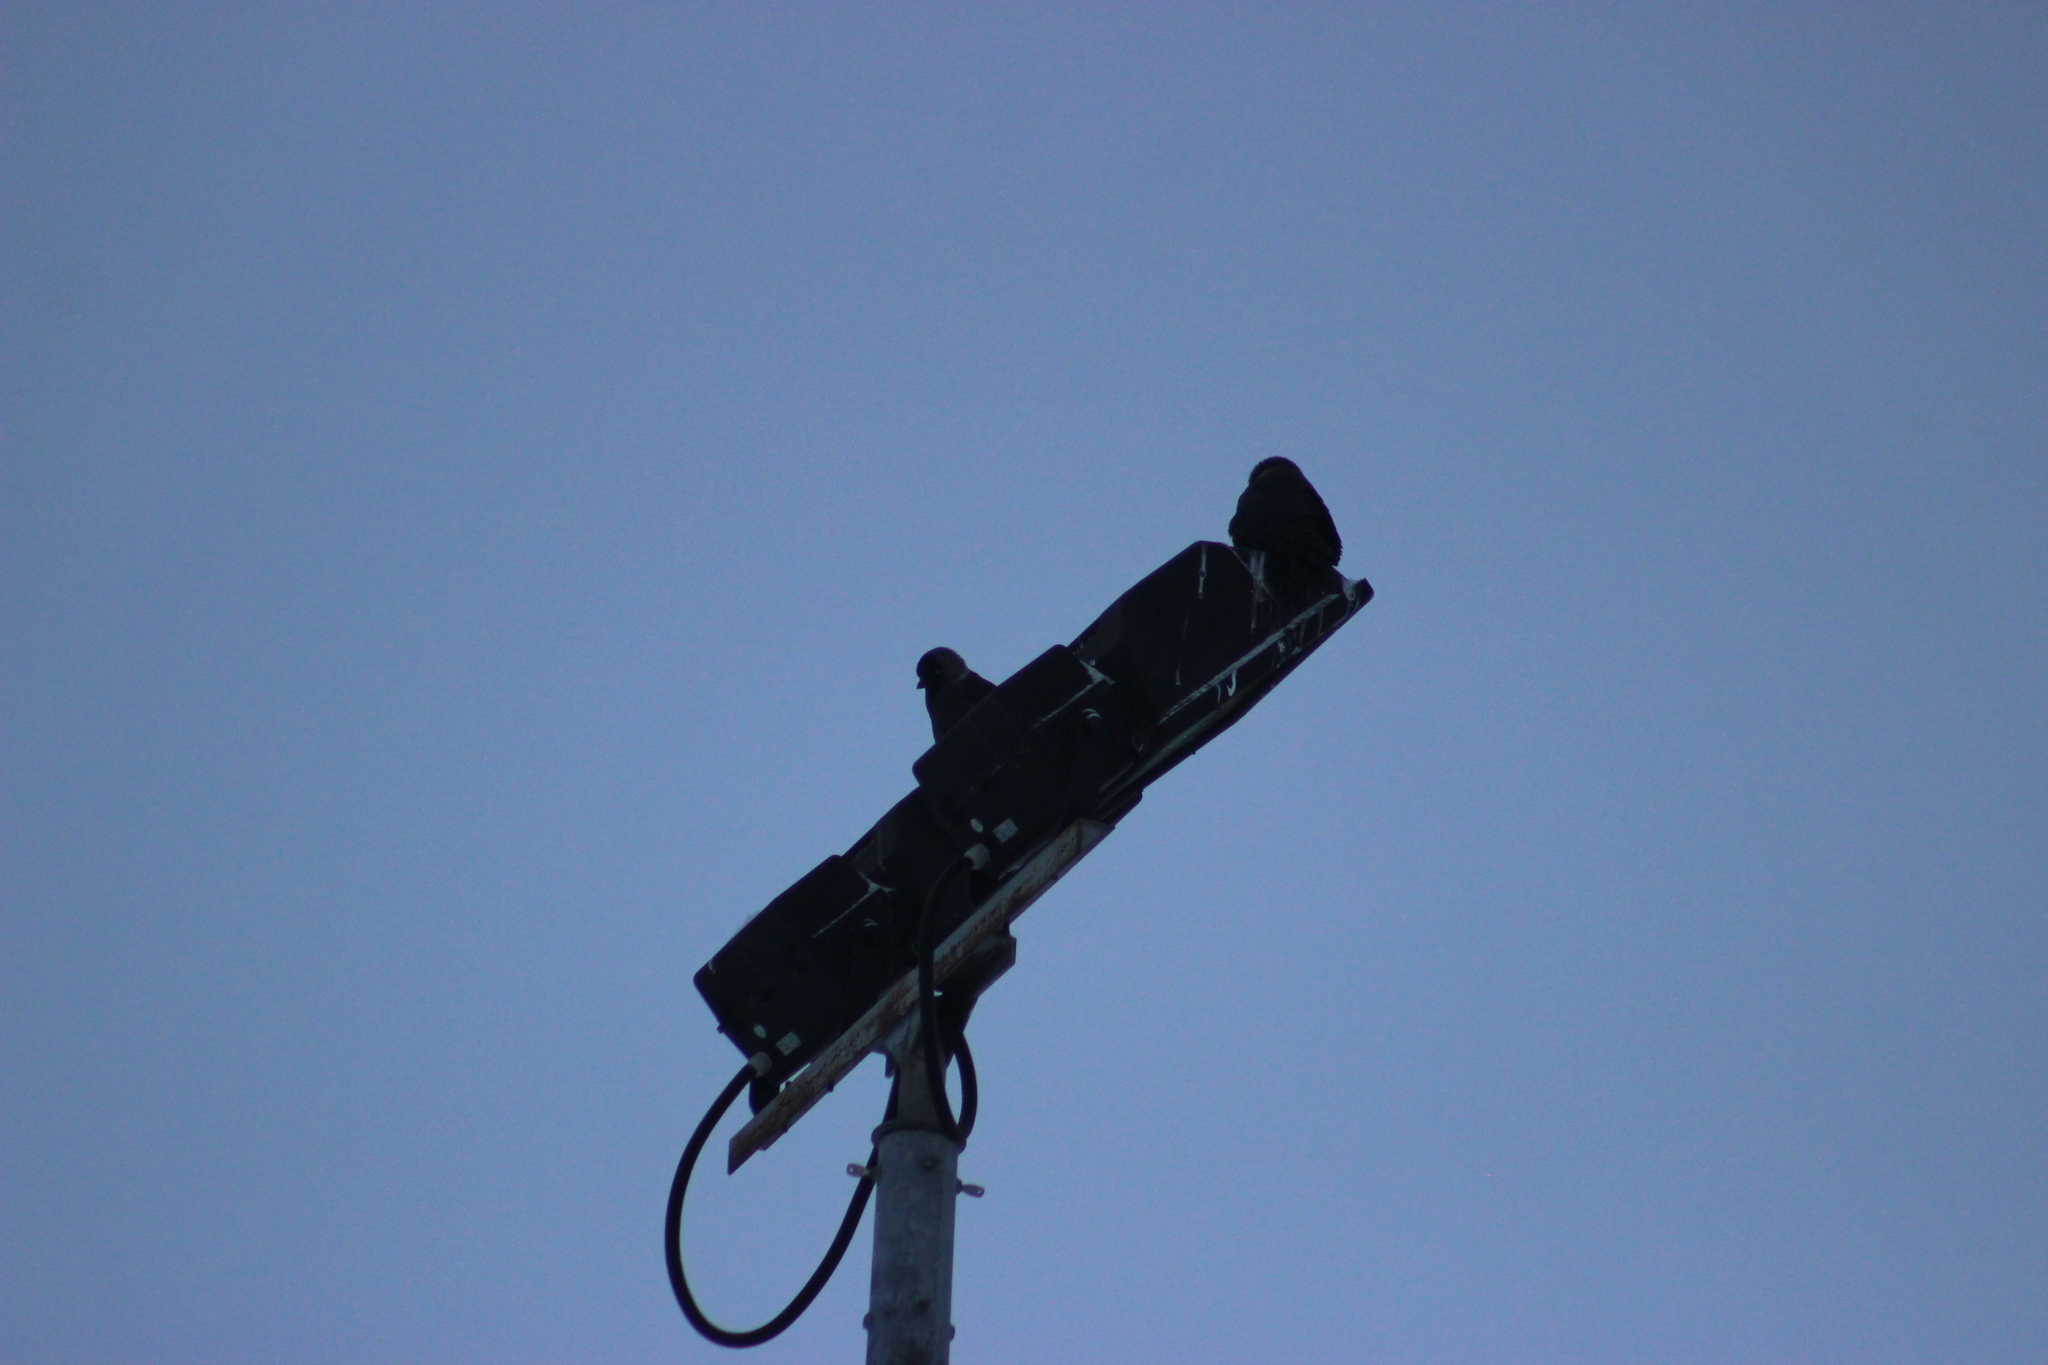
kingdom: Animalia
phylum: Chordata
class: Aves
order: Passeriformes
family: Corvidae
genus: Coloeus
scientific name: Coloeus monedula
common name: Western jackdaw
